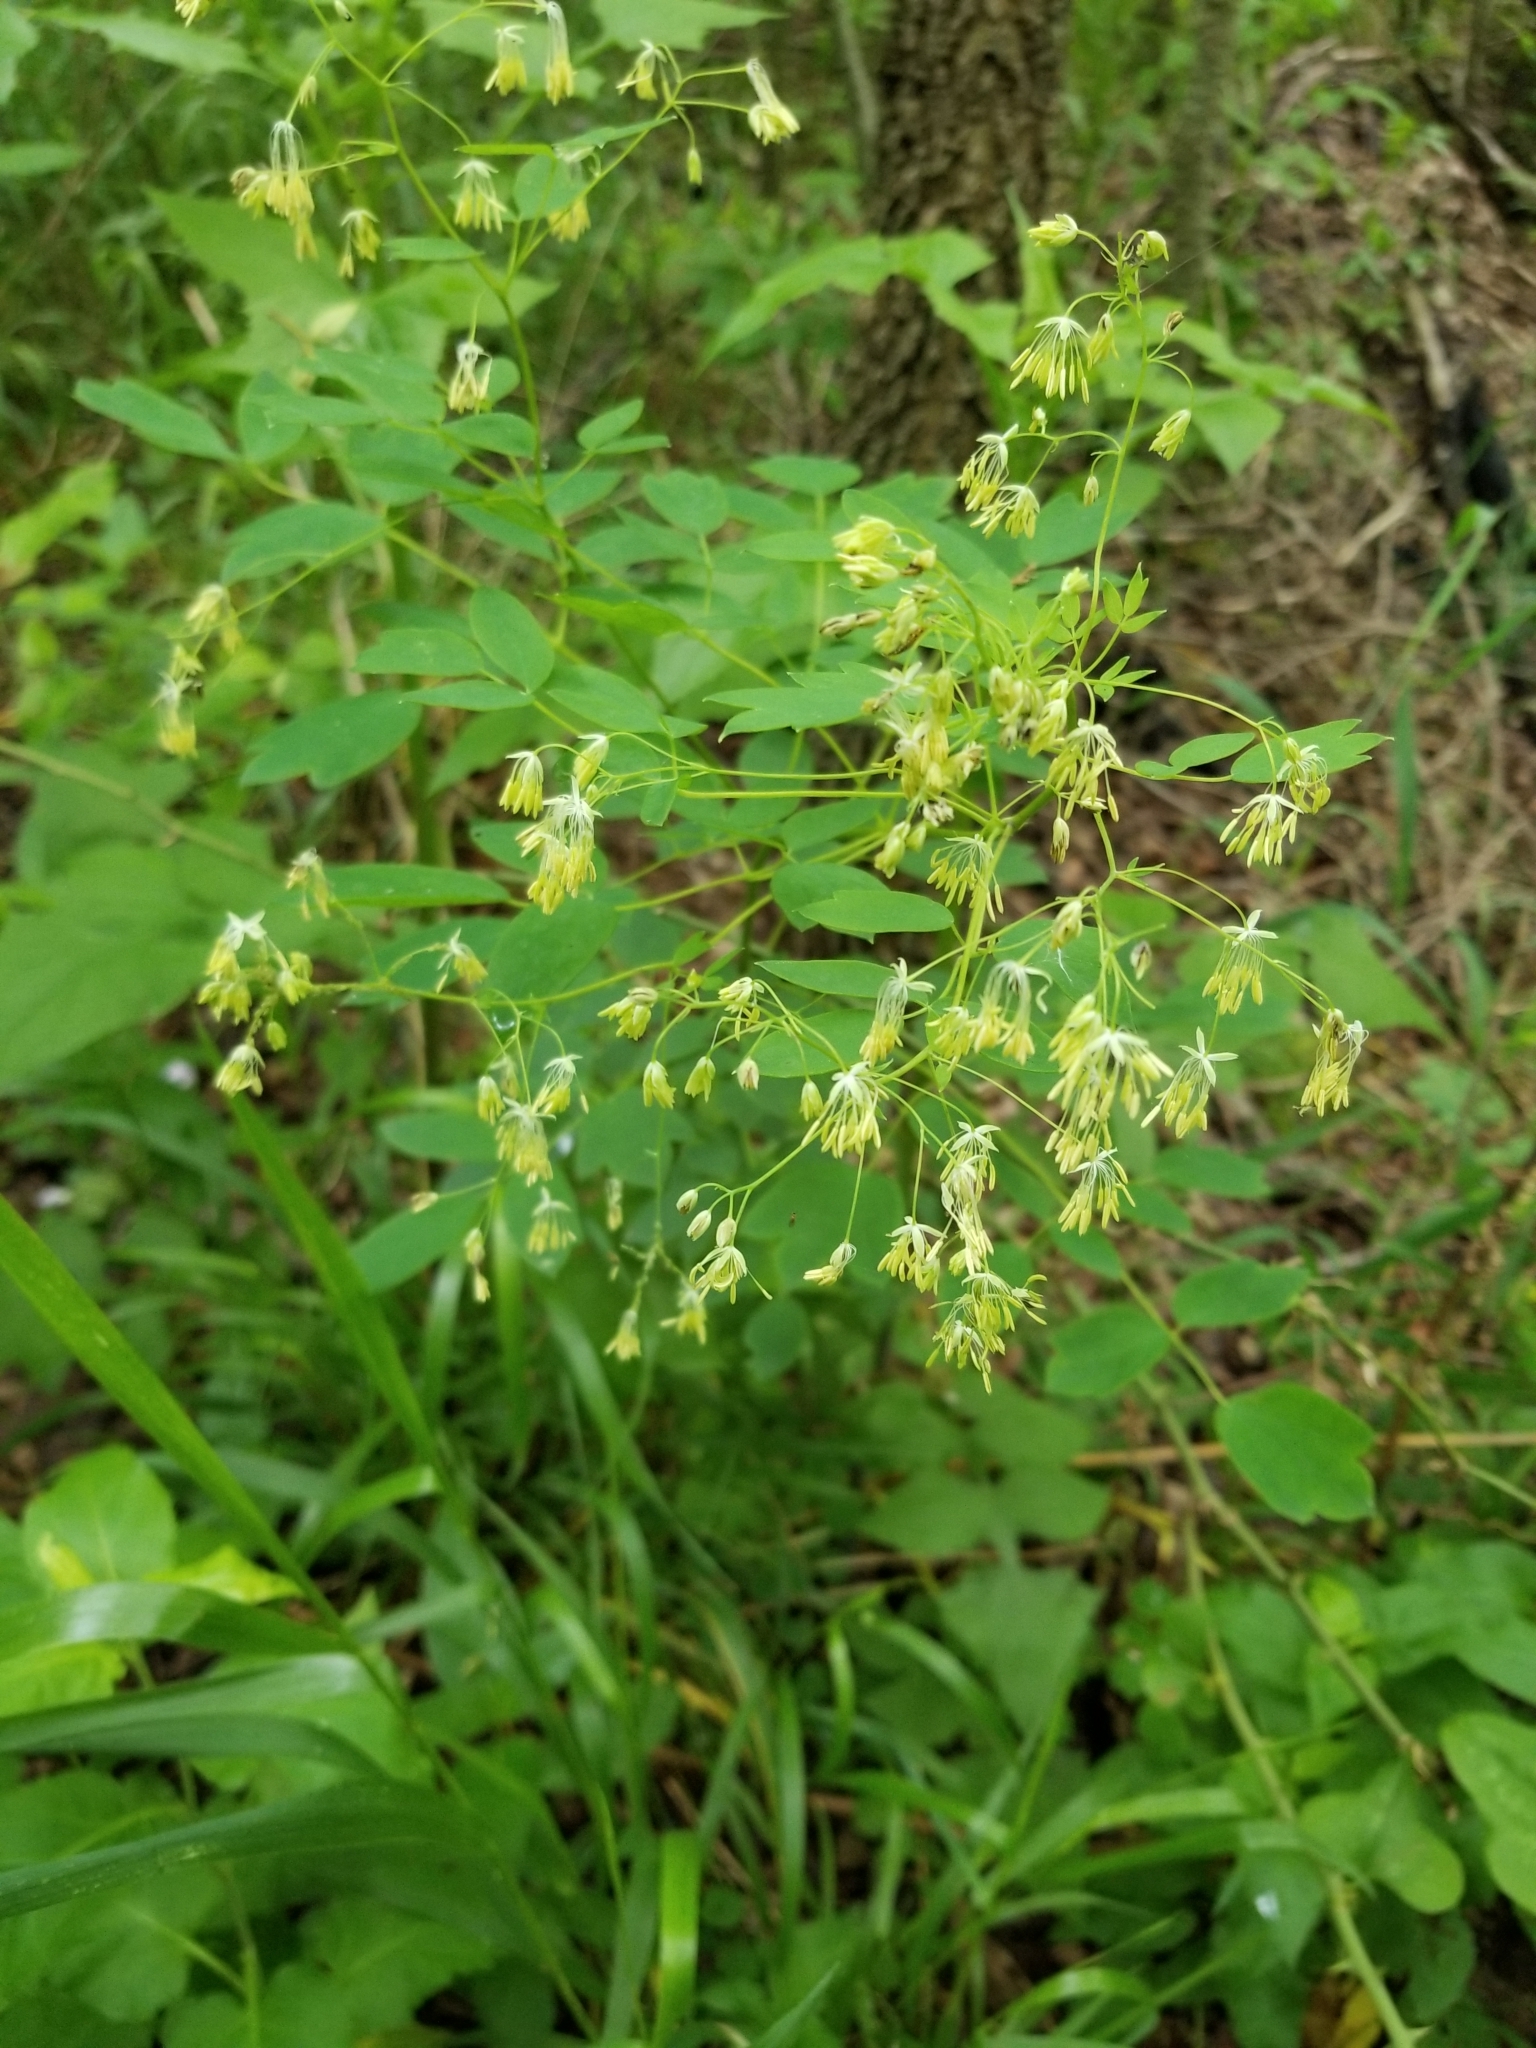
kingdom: Plantae
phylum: Tracheophyta
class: Magnoliopsida
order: Ranunculales
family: Ranunculaceae
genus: Thalictrum
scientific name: Thalictrum dasycarpum
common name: Purple meadow-rue
